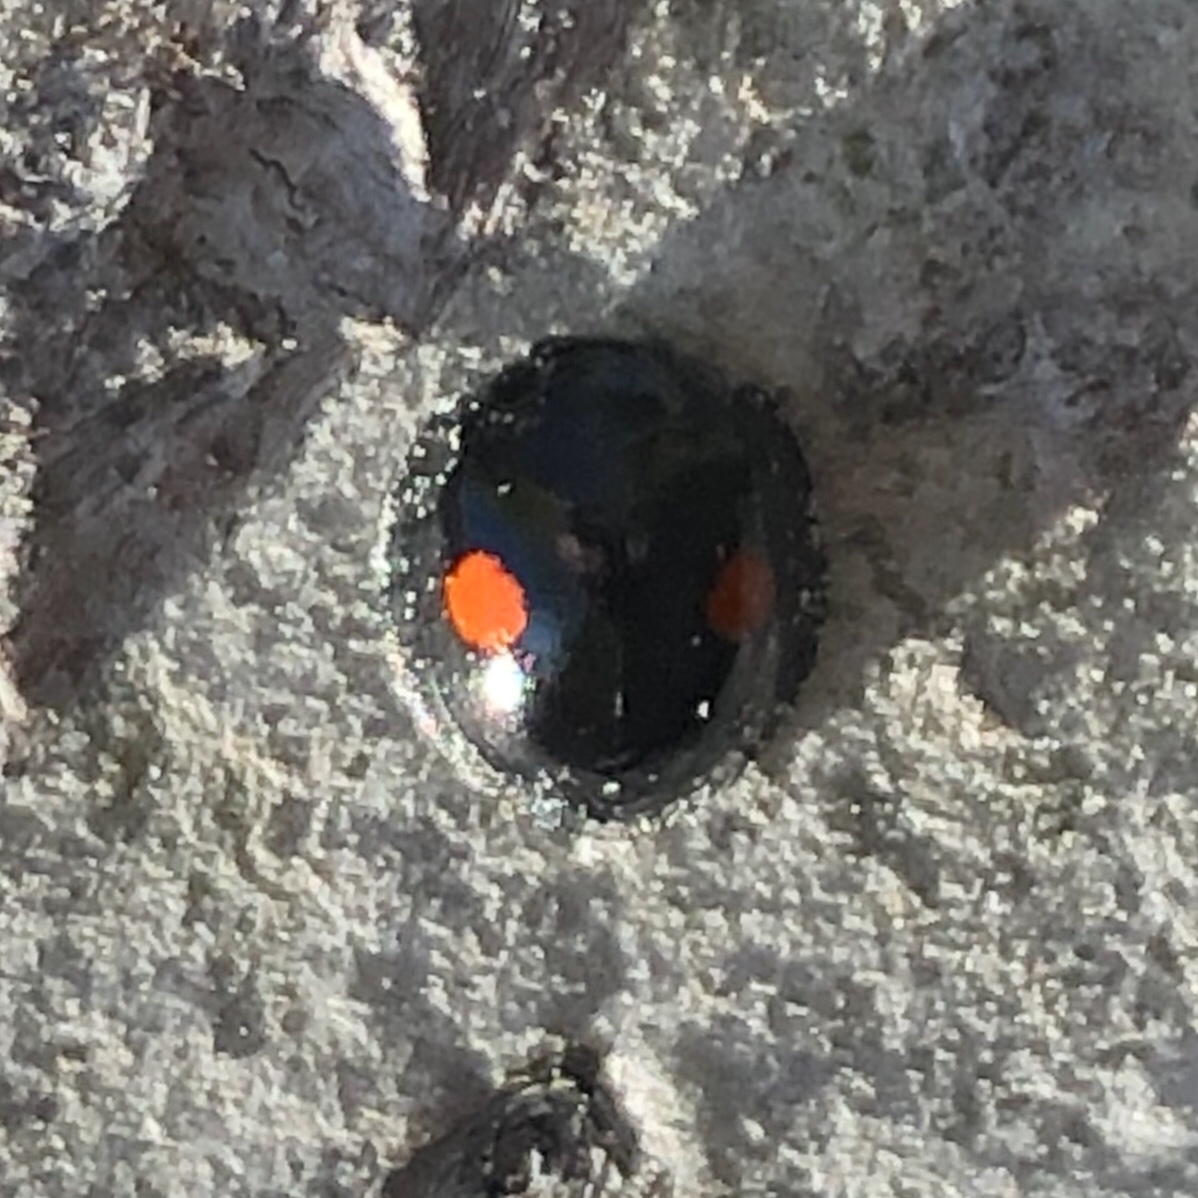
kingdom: Animalia
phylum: Arthropoda
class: Insecta
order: Coleoptera
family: Coccinellidae
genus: Chilocorus
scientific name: Chilocorus stigma
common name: Twicestabbed lady beetle
